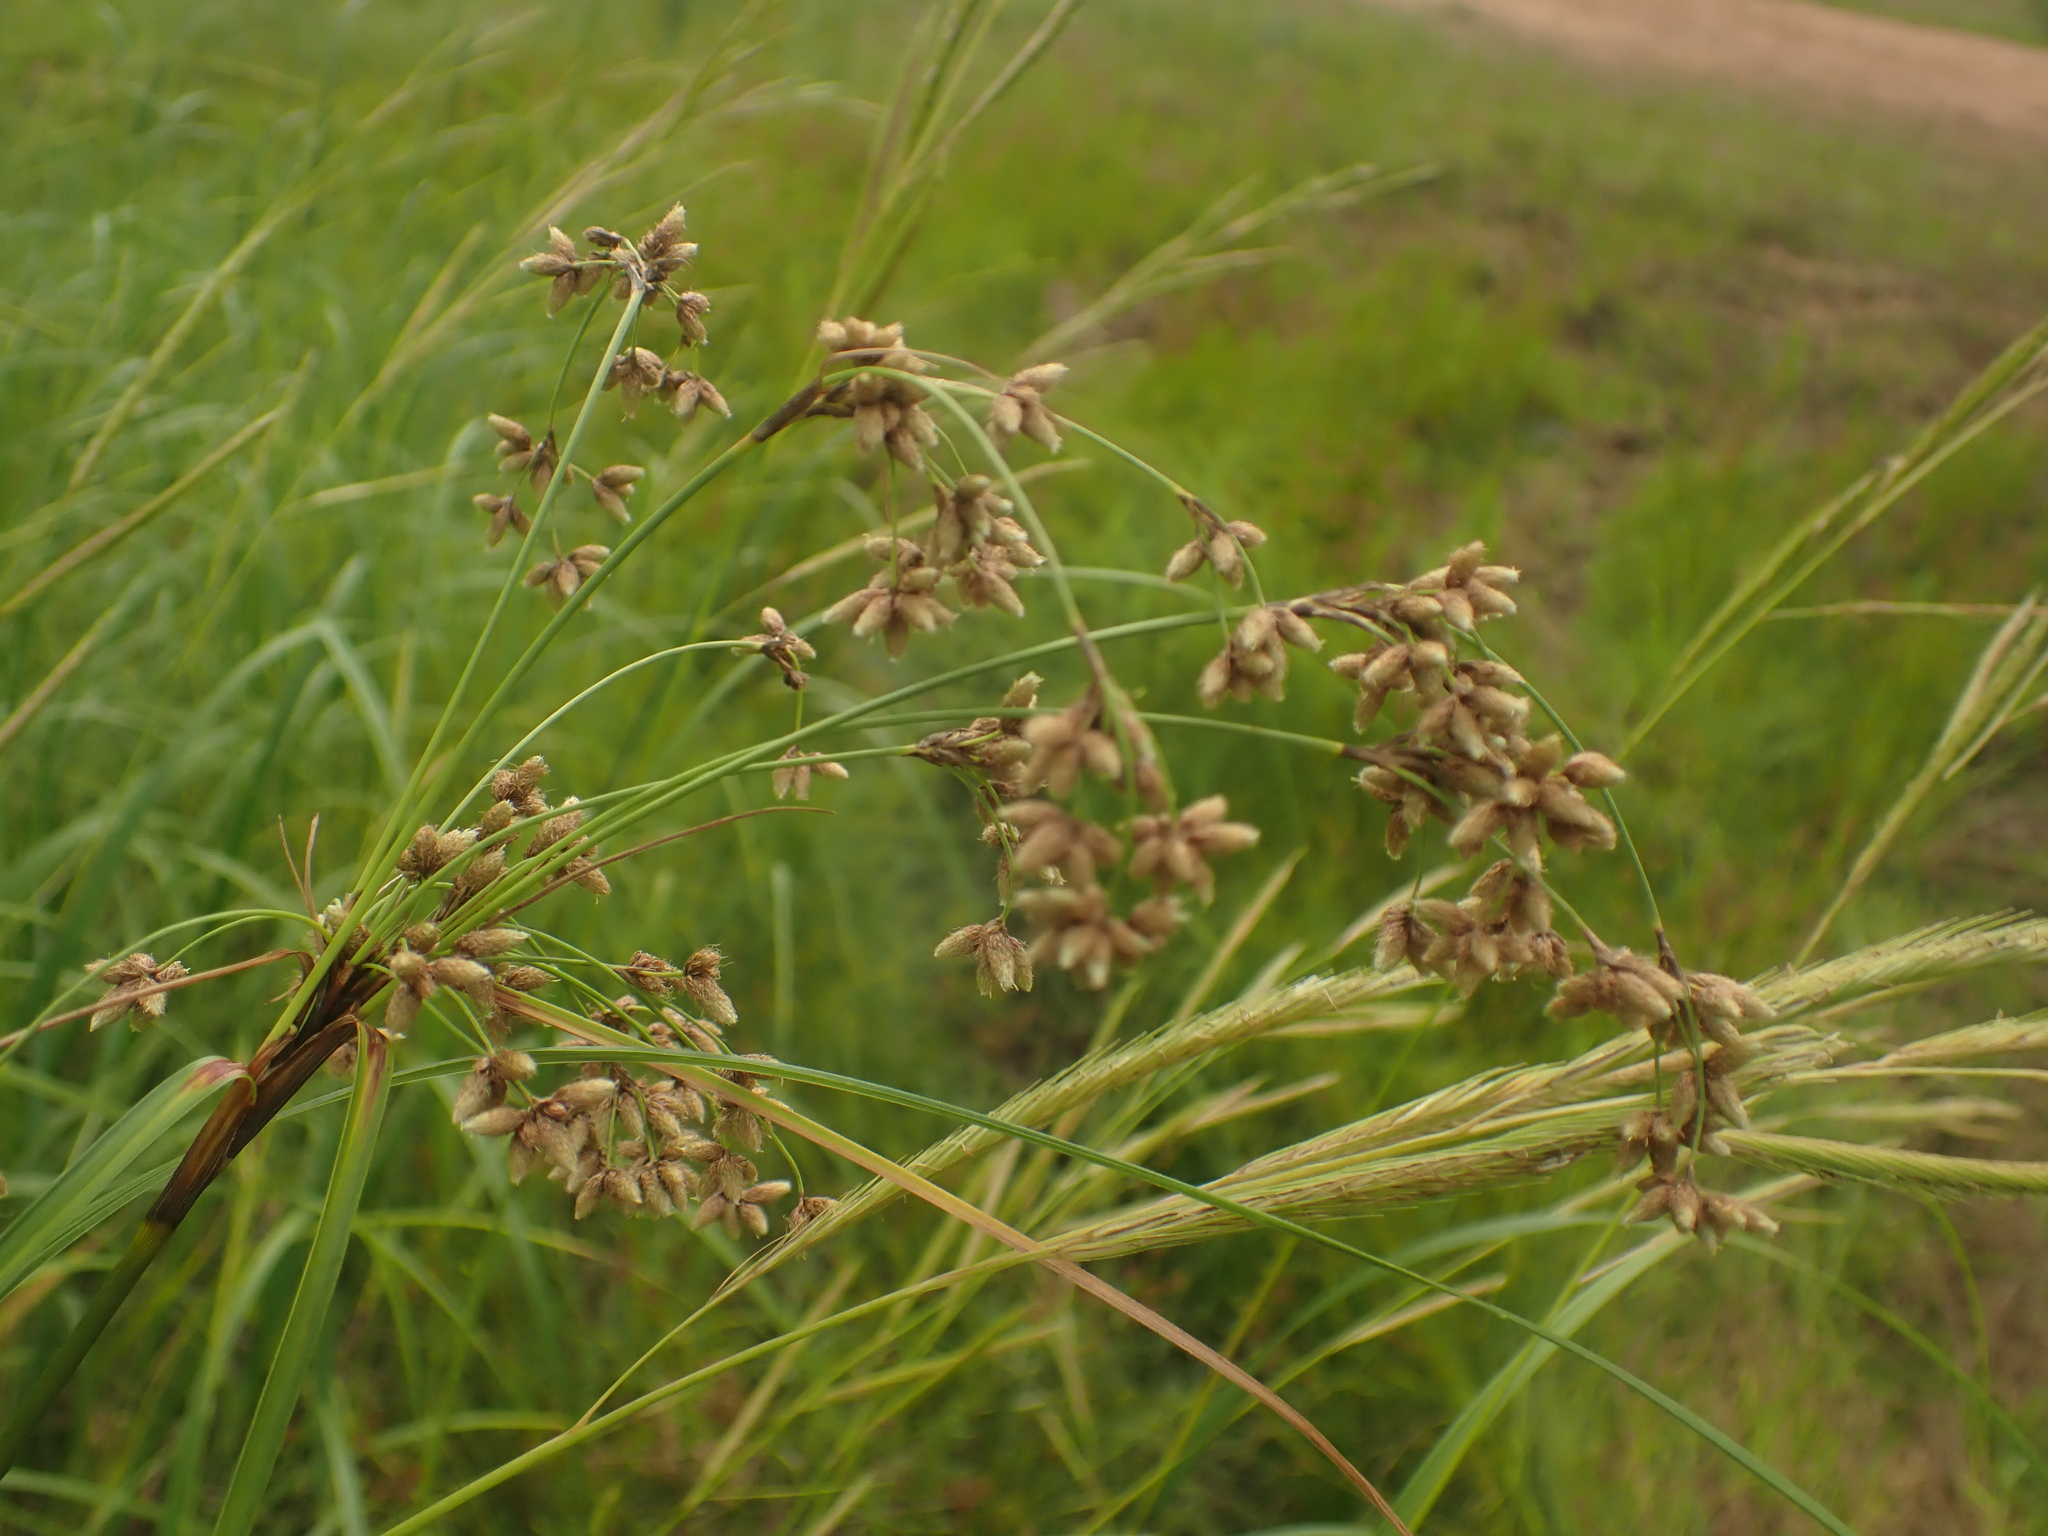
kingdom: Plantae
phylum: Tracheophyta
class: Liliopsida
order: Poales
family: Cyperaceae
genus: Scirpus
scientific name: Scirpus cyperinus
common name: Black-sheathed bulrush
